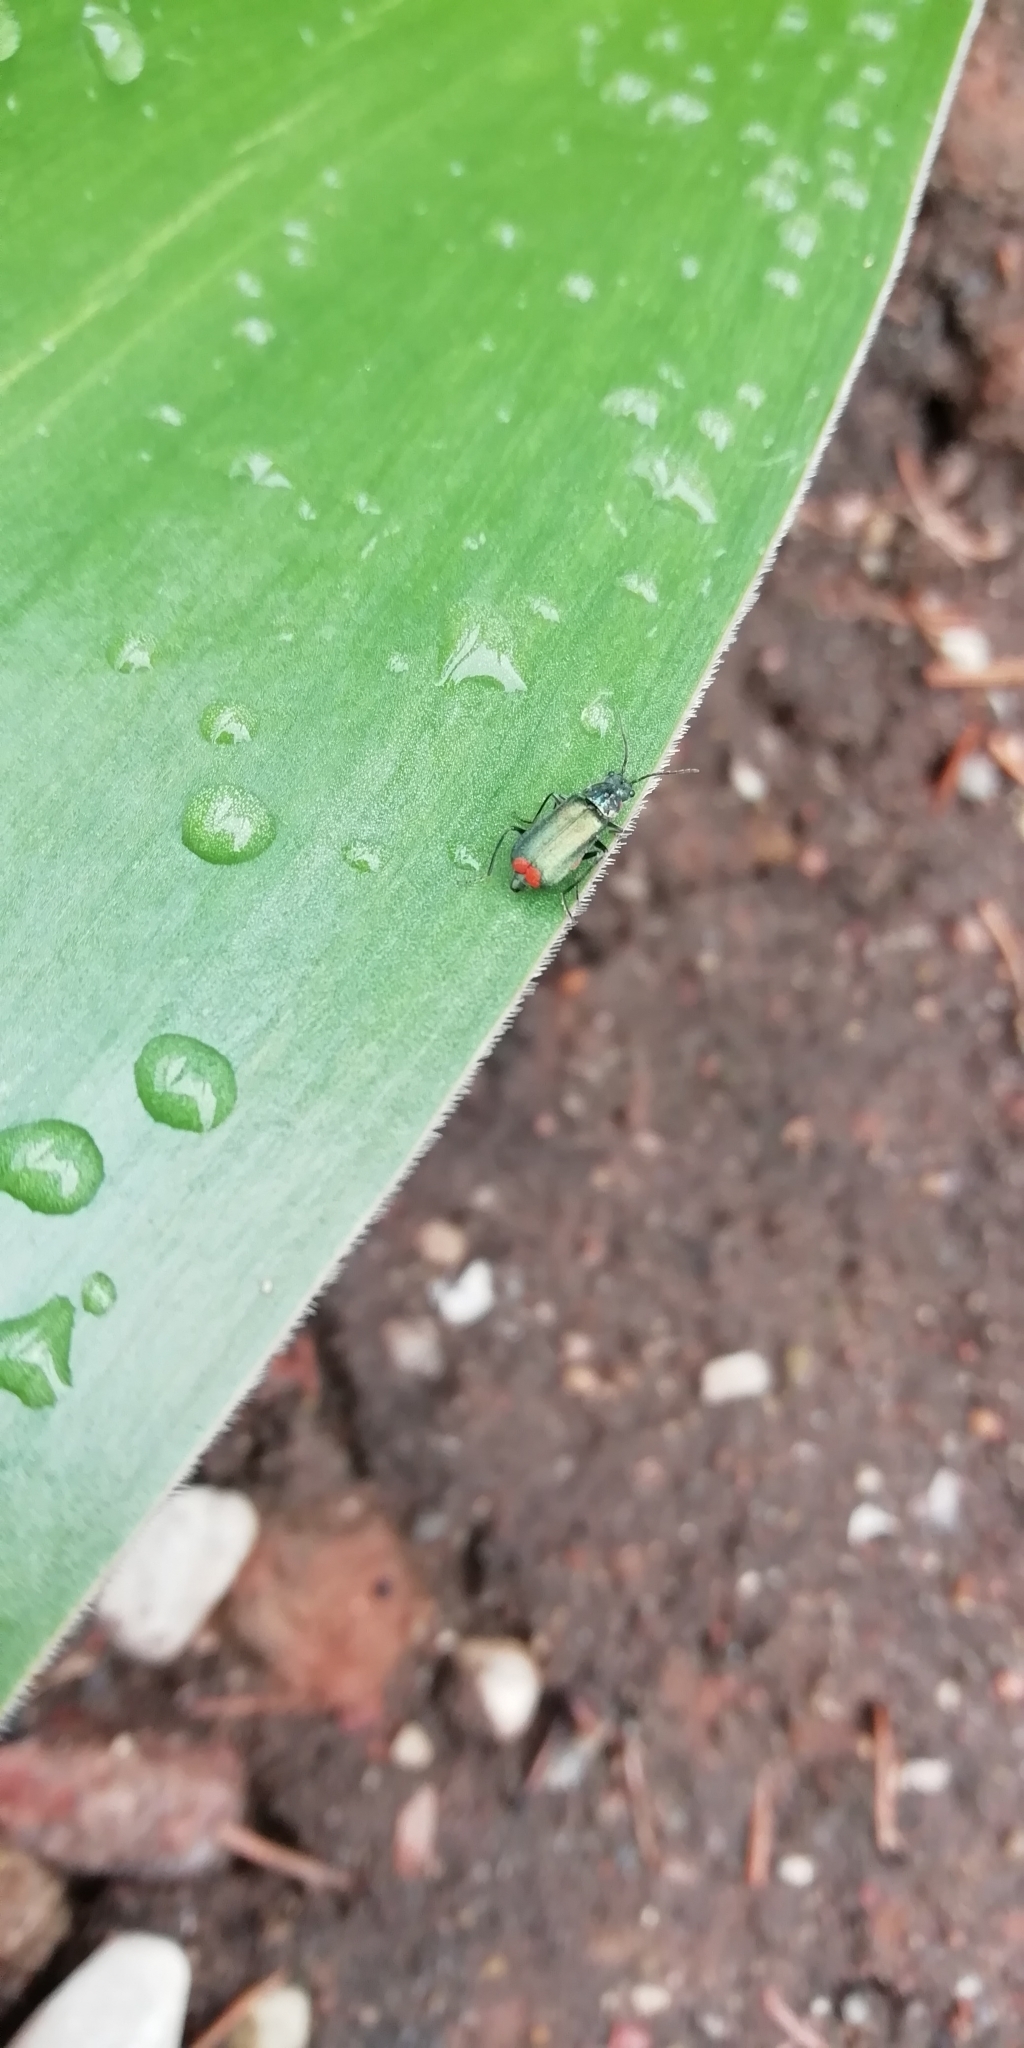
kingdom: Animalia
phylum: Arthropoda
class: Insecta
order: Coleoptera
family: Melyridae
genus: Malachius
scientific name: Malachius bipustulatus
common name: Malachite beetle
